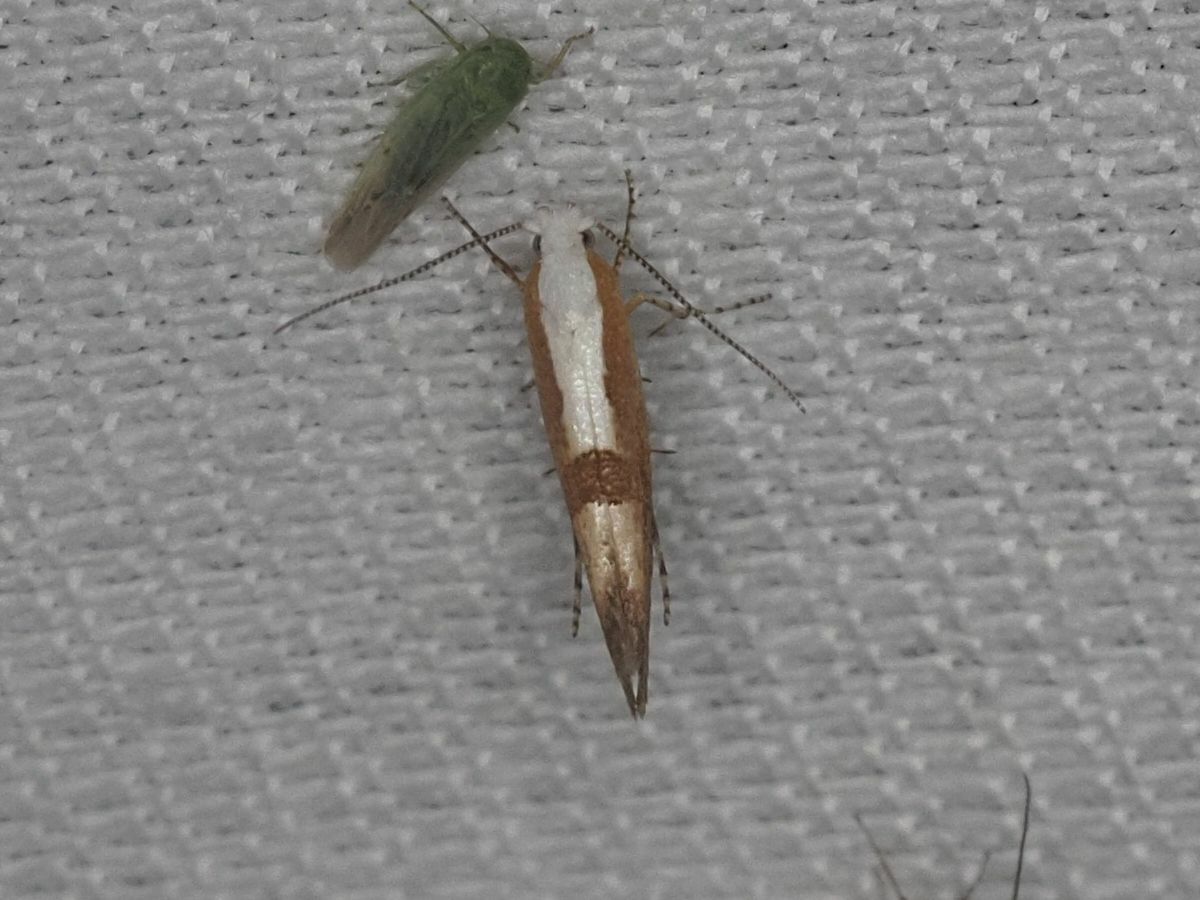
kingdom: Animalia
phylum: Arthropoda
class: Insecta
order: Lepidoptera
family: Argyresthiidae
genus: Argyresthia
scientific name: Argyresthia pruniella
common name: Cherry fruit moth
